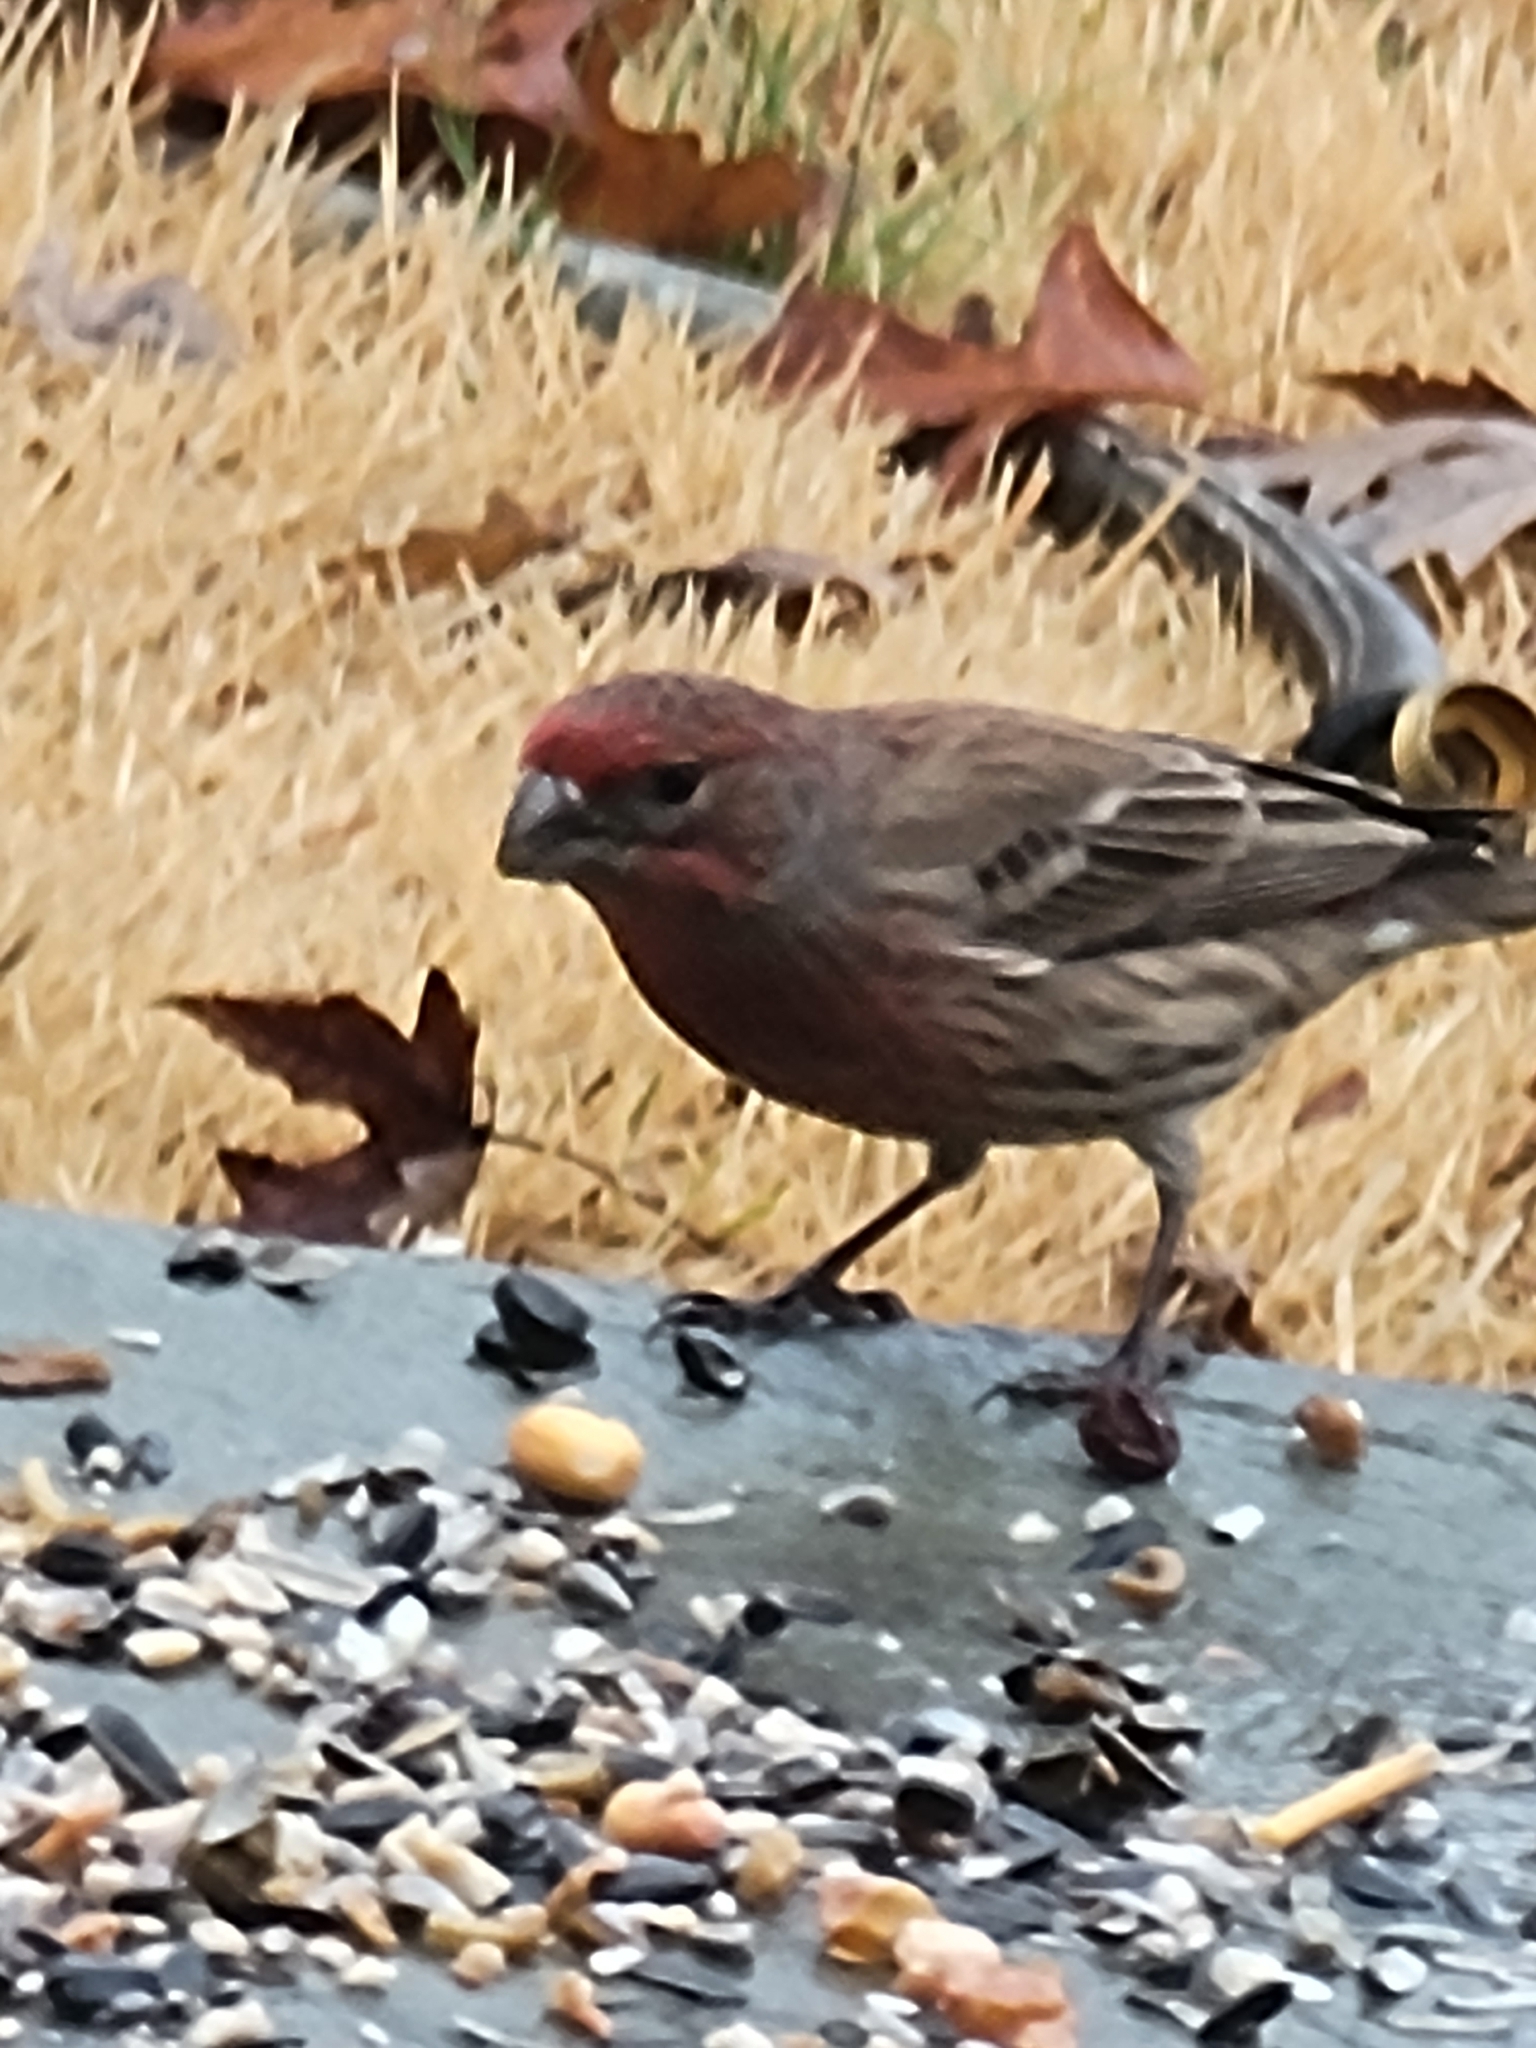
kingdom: Animalia
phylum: Chordata
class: Aves
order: Passeriformes
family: Fringillidae
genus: Haemorhous
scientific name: Haemorhous mexicanus
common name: House finch
